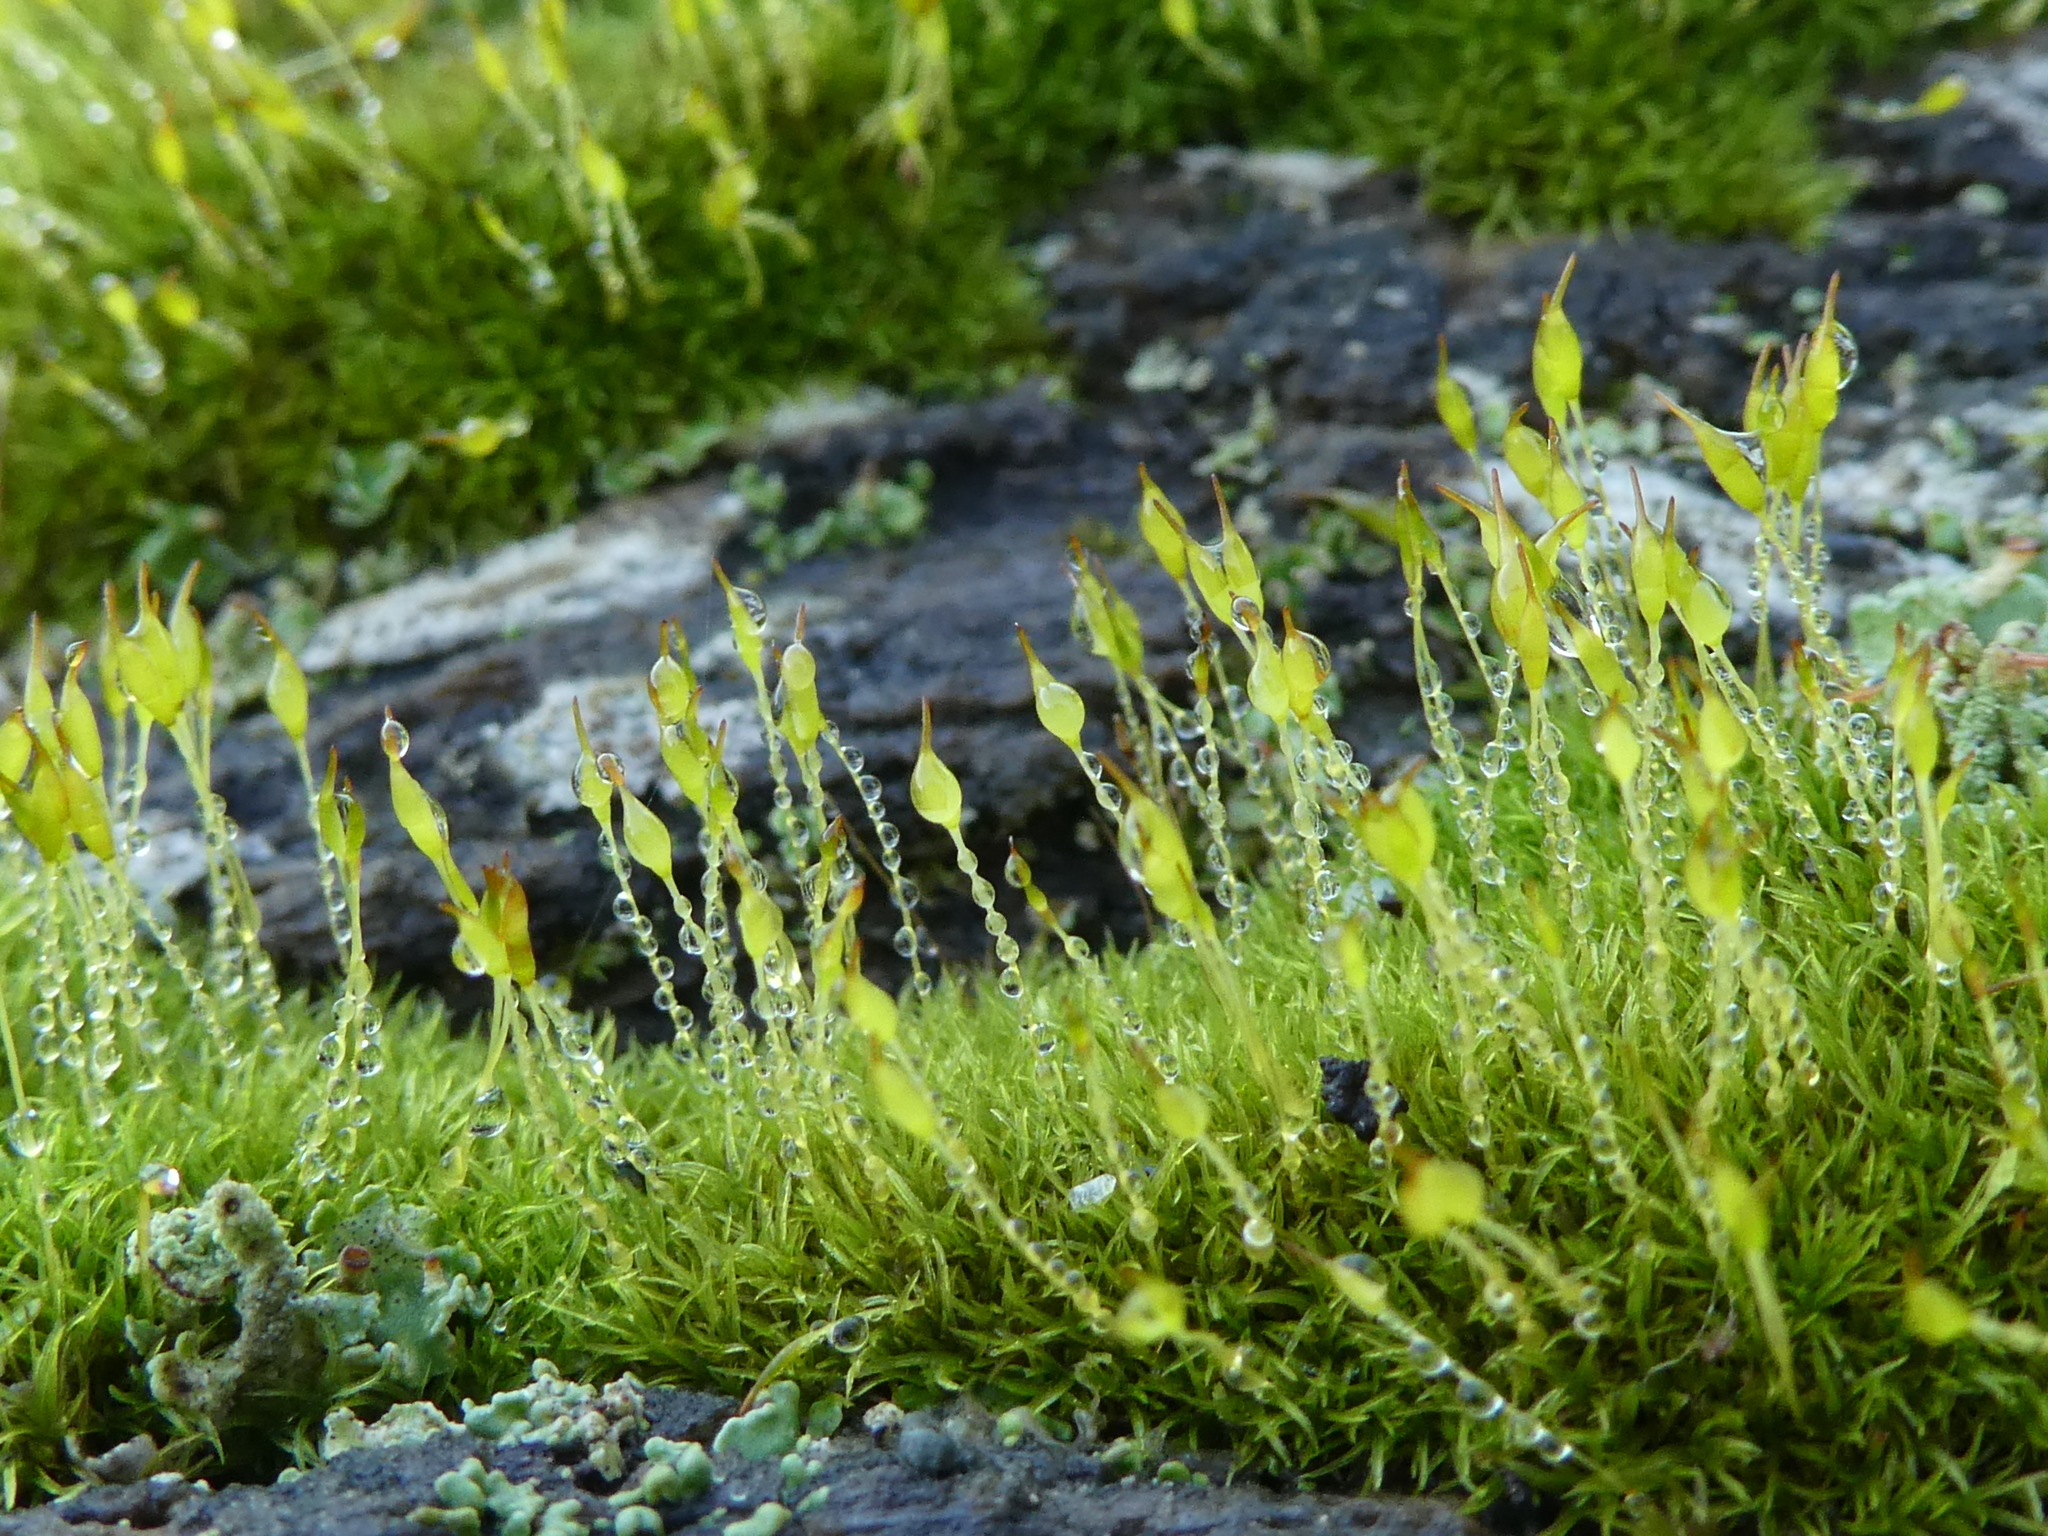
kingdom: Plantae
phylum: Bryophyta
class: Bryopsida
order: Dicranales
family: Rhabdoweisiaceae
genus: Dicranoweisia
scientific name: Dicranoweisia cirrata
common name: Common pincushion
